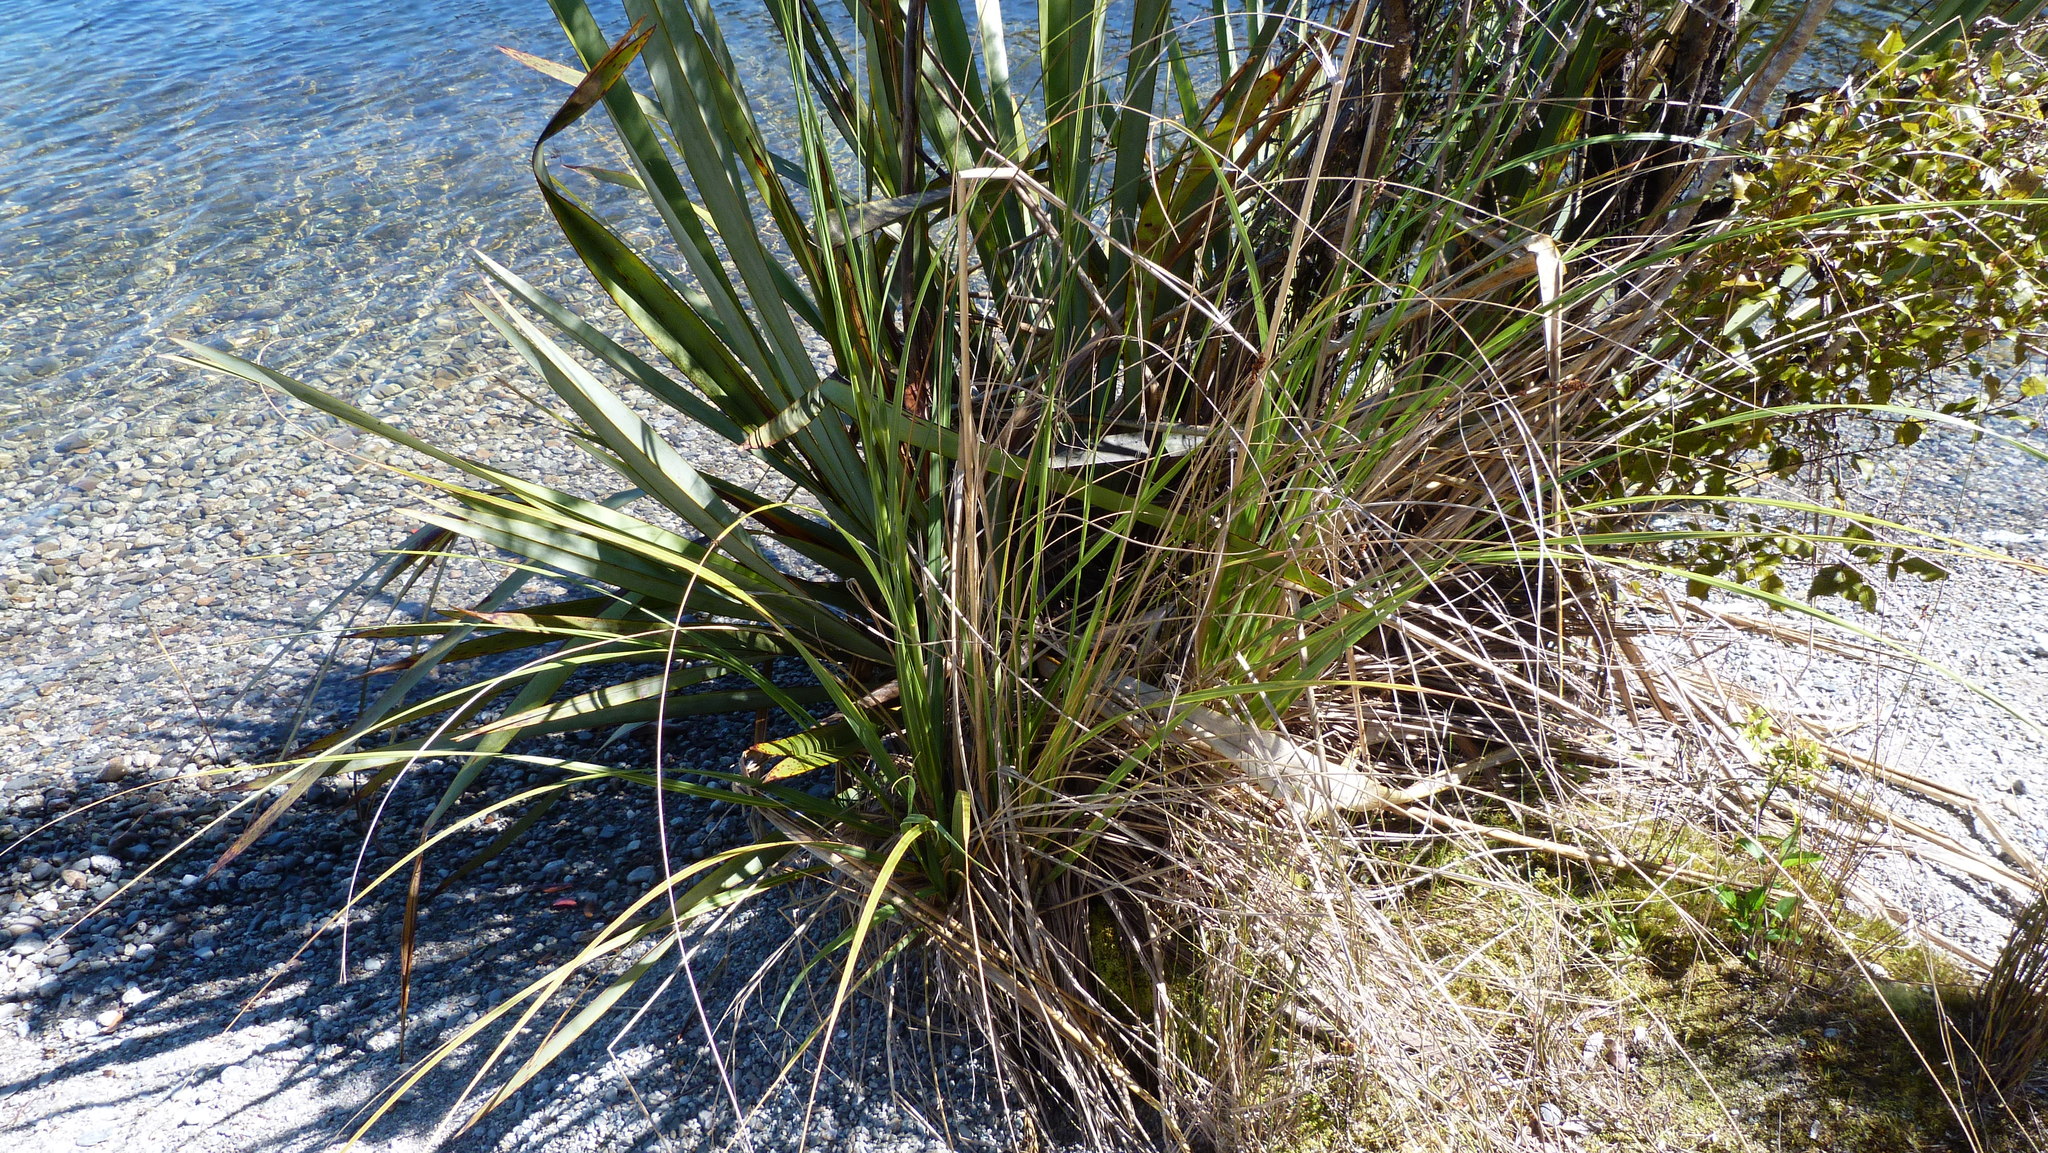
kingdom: Plantae
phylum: Tracheophyta
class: Liliopsida
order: Poales
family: Poaceae
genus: Austroderia
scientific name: Austroderia richardii
